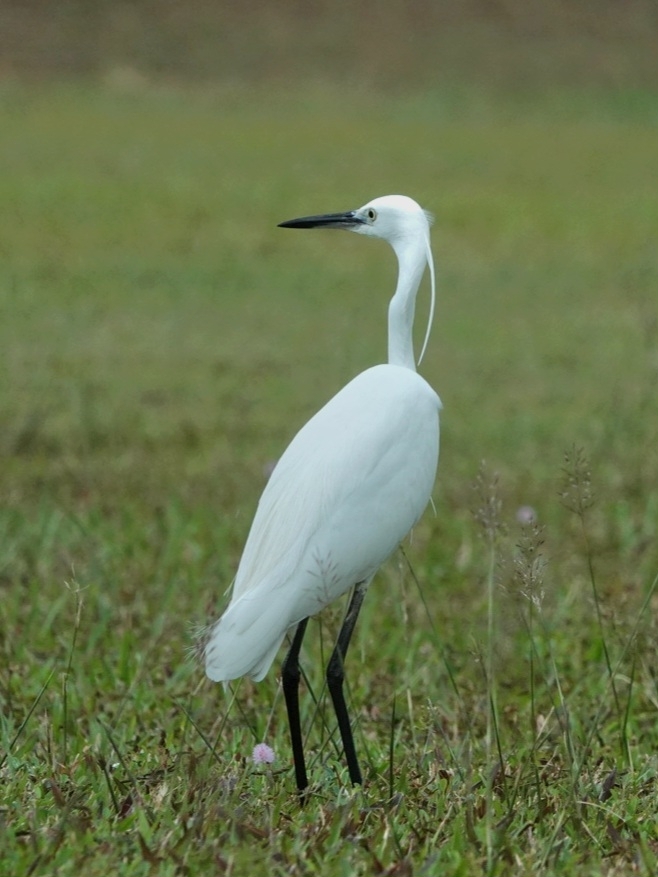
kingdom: Animalia
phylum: Chordata
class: Aves
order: Pelecaniformes
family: Ardeidae
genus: Egretta
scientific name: Egretta garzetta
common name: Little egret
